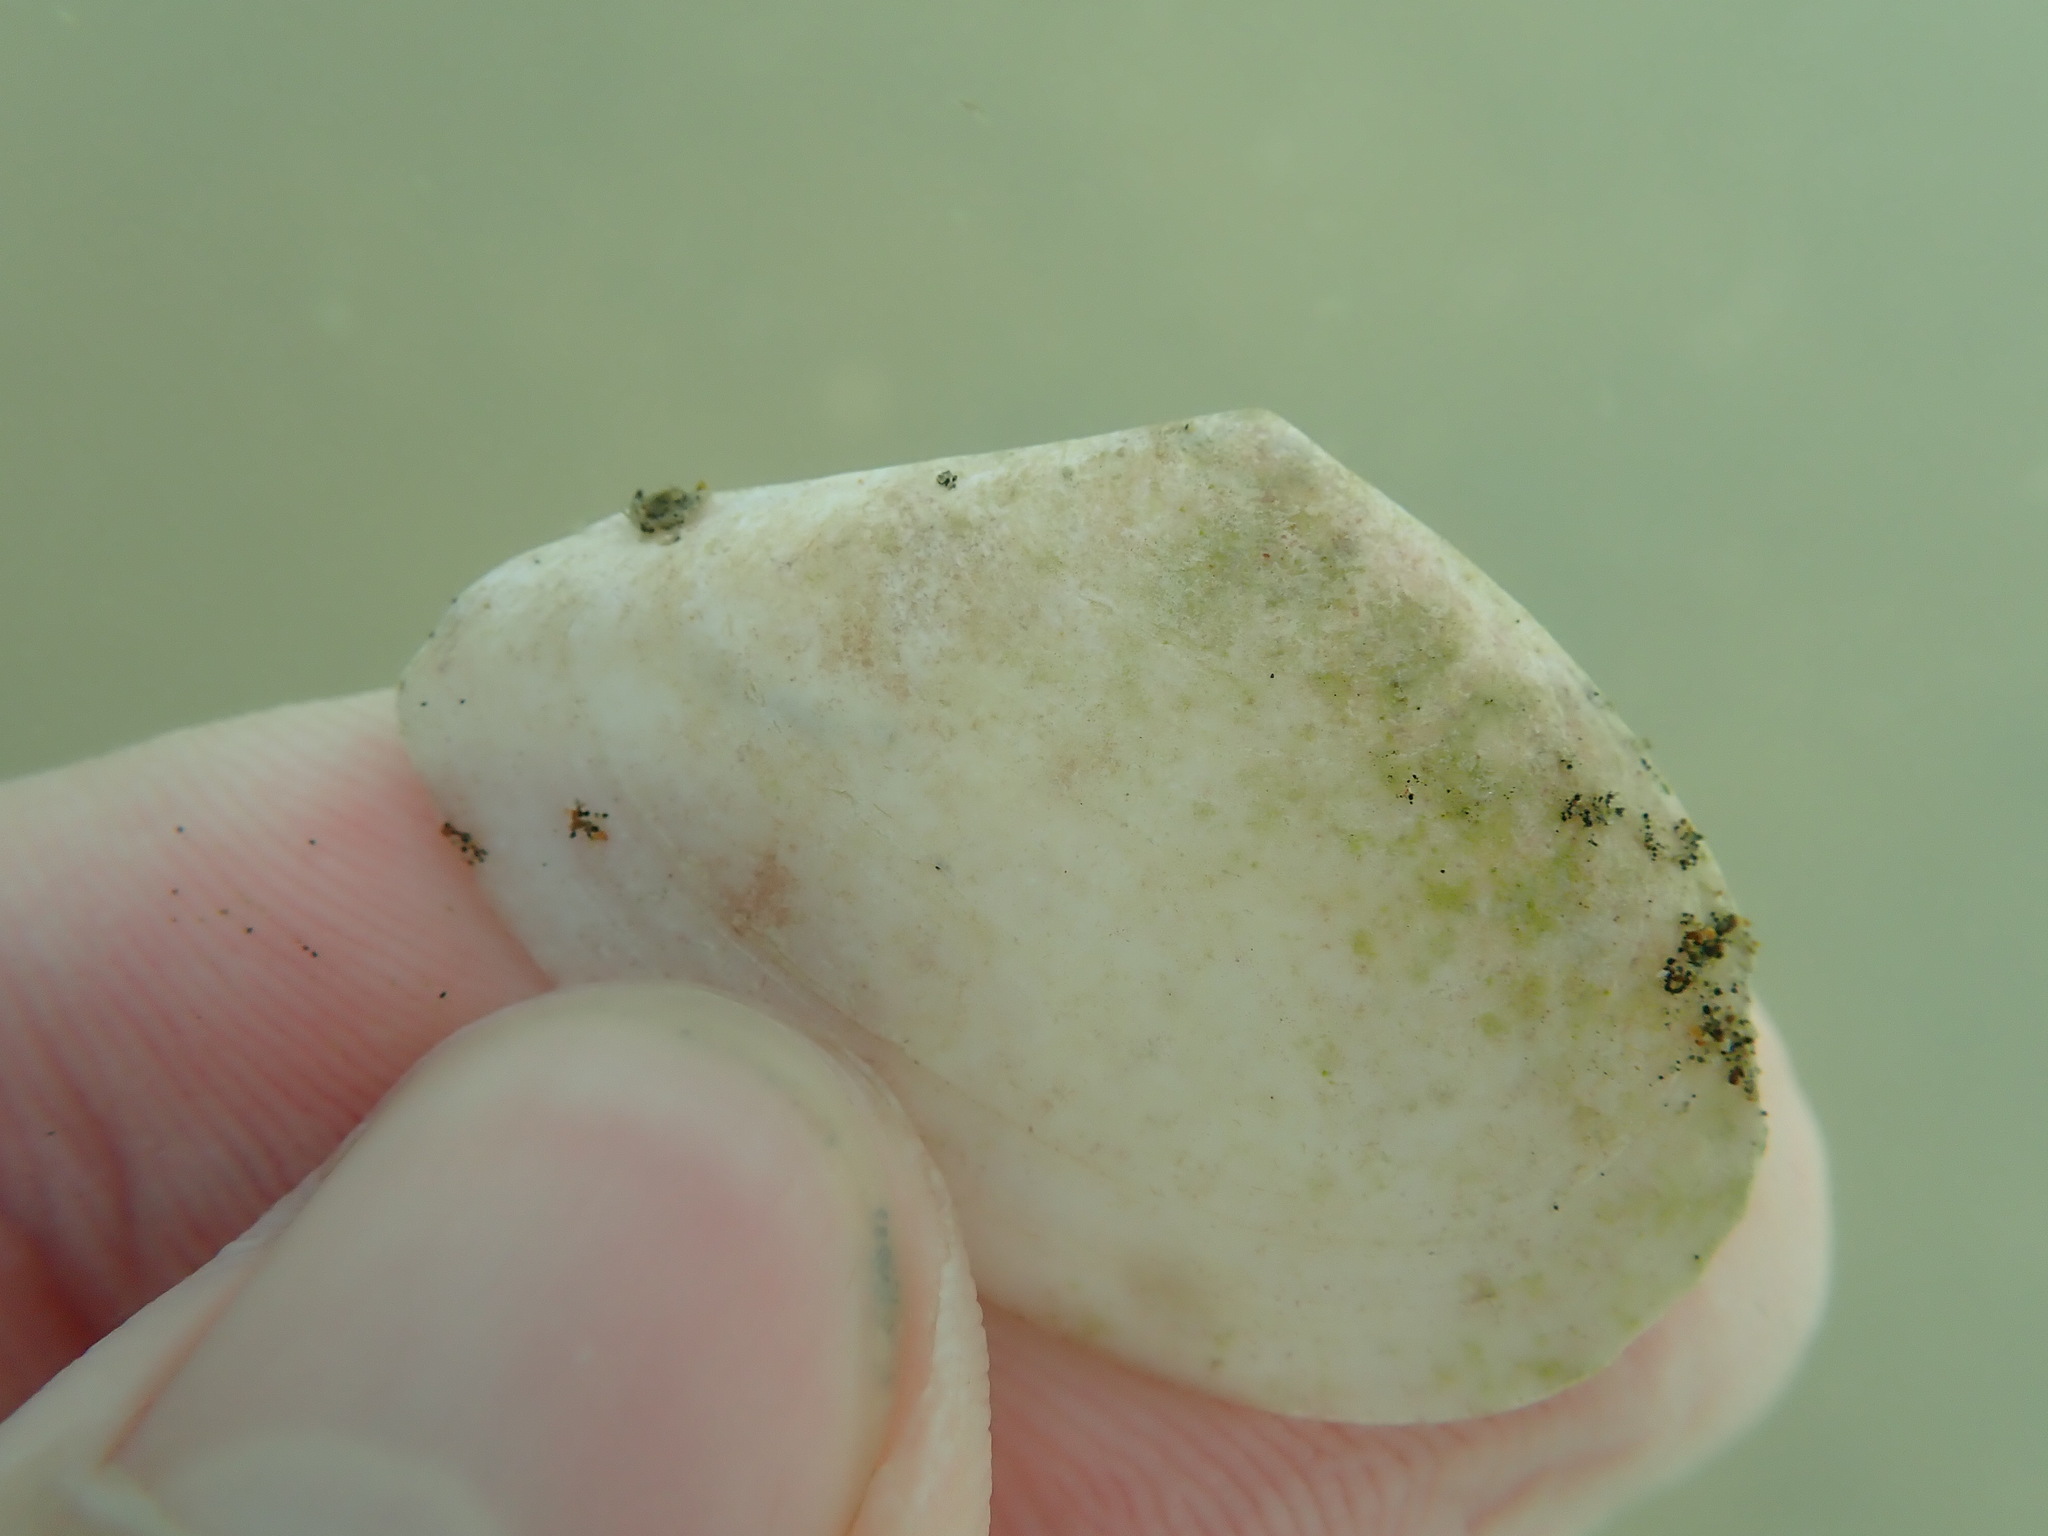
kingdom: Animalia
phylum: Mollusca
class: Bivalvia
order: Cardiida
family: Tellinidae
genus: Bartschicoma
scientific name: Bartschicoma edgari
